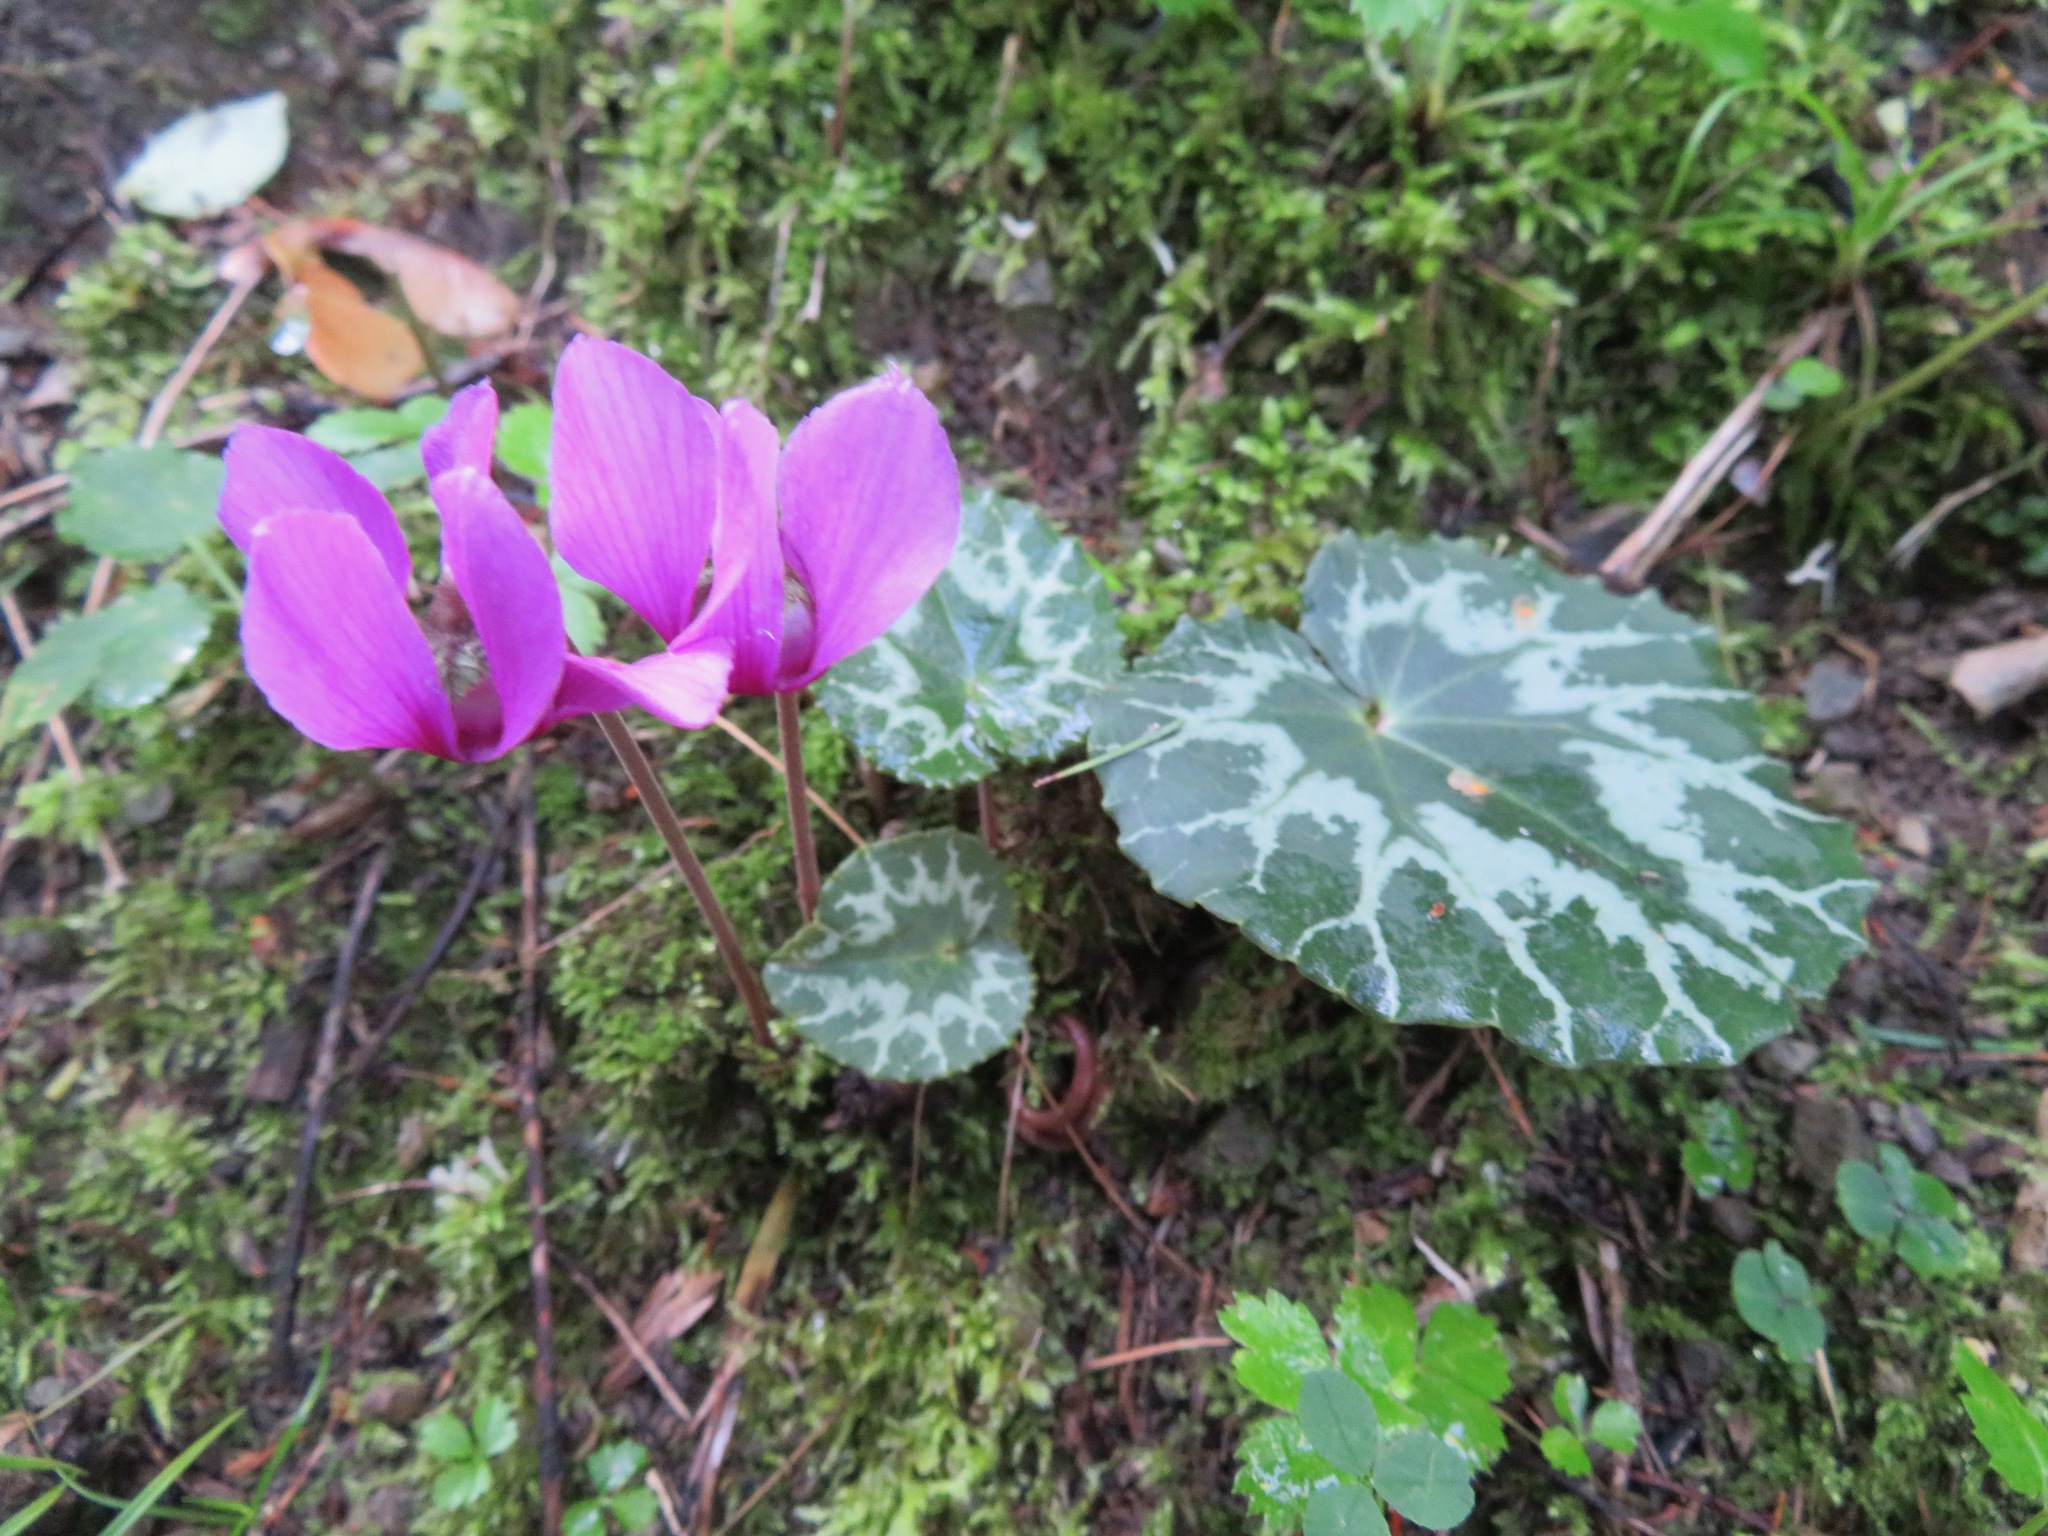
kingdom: Plantae
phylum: Tracheophyta
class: Magnoliopsida
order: Ericales
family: Primulaceae
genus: Cyclamen
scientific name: Cyclamen purpurascens
